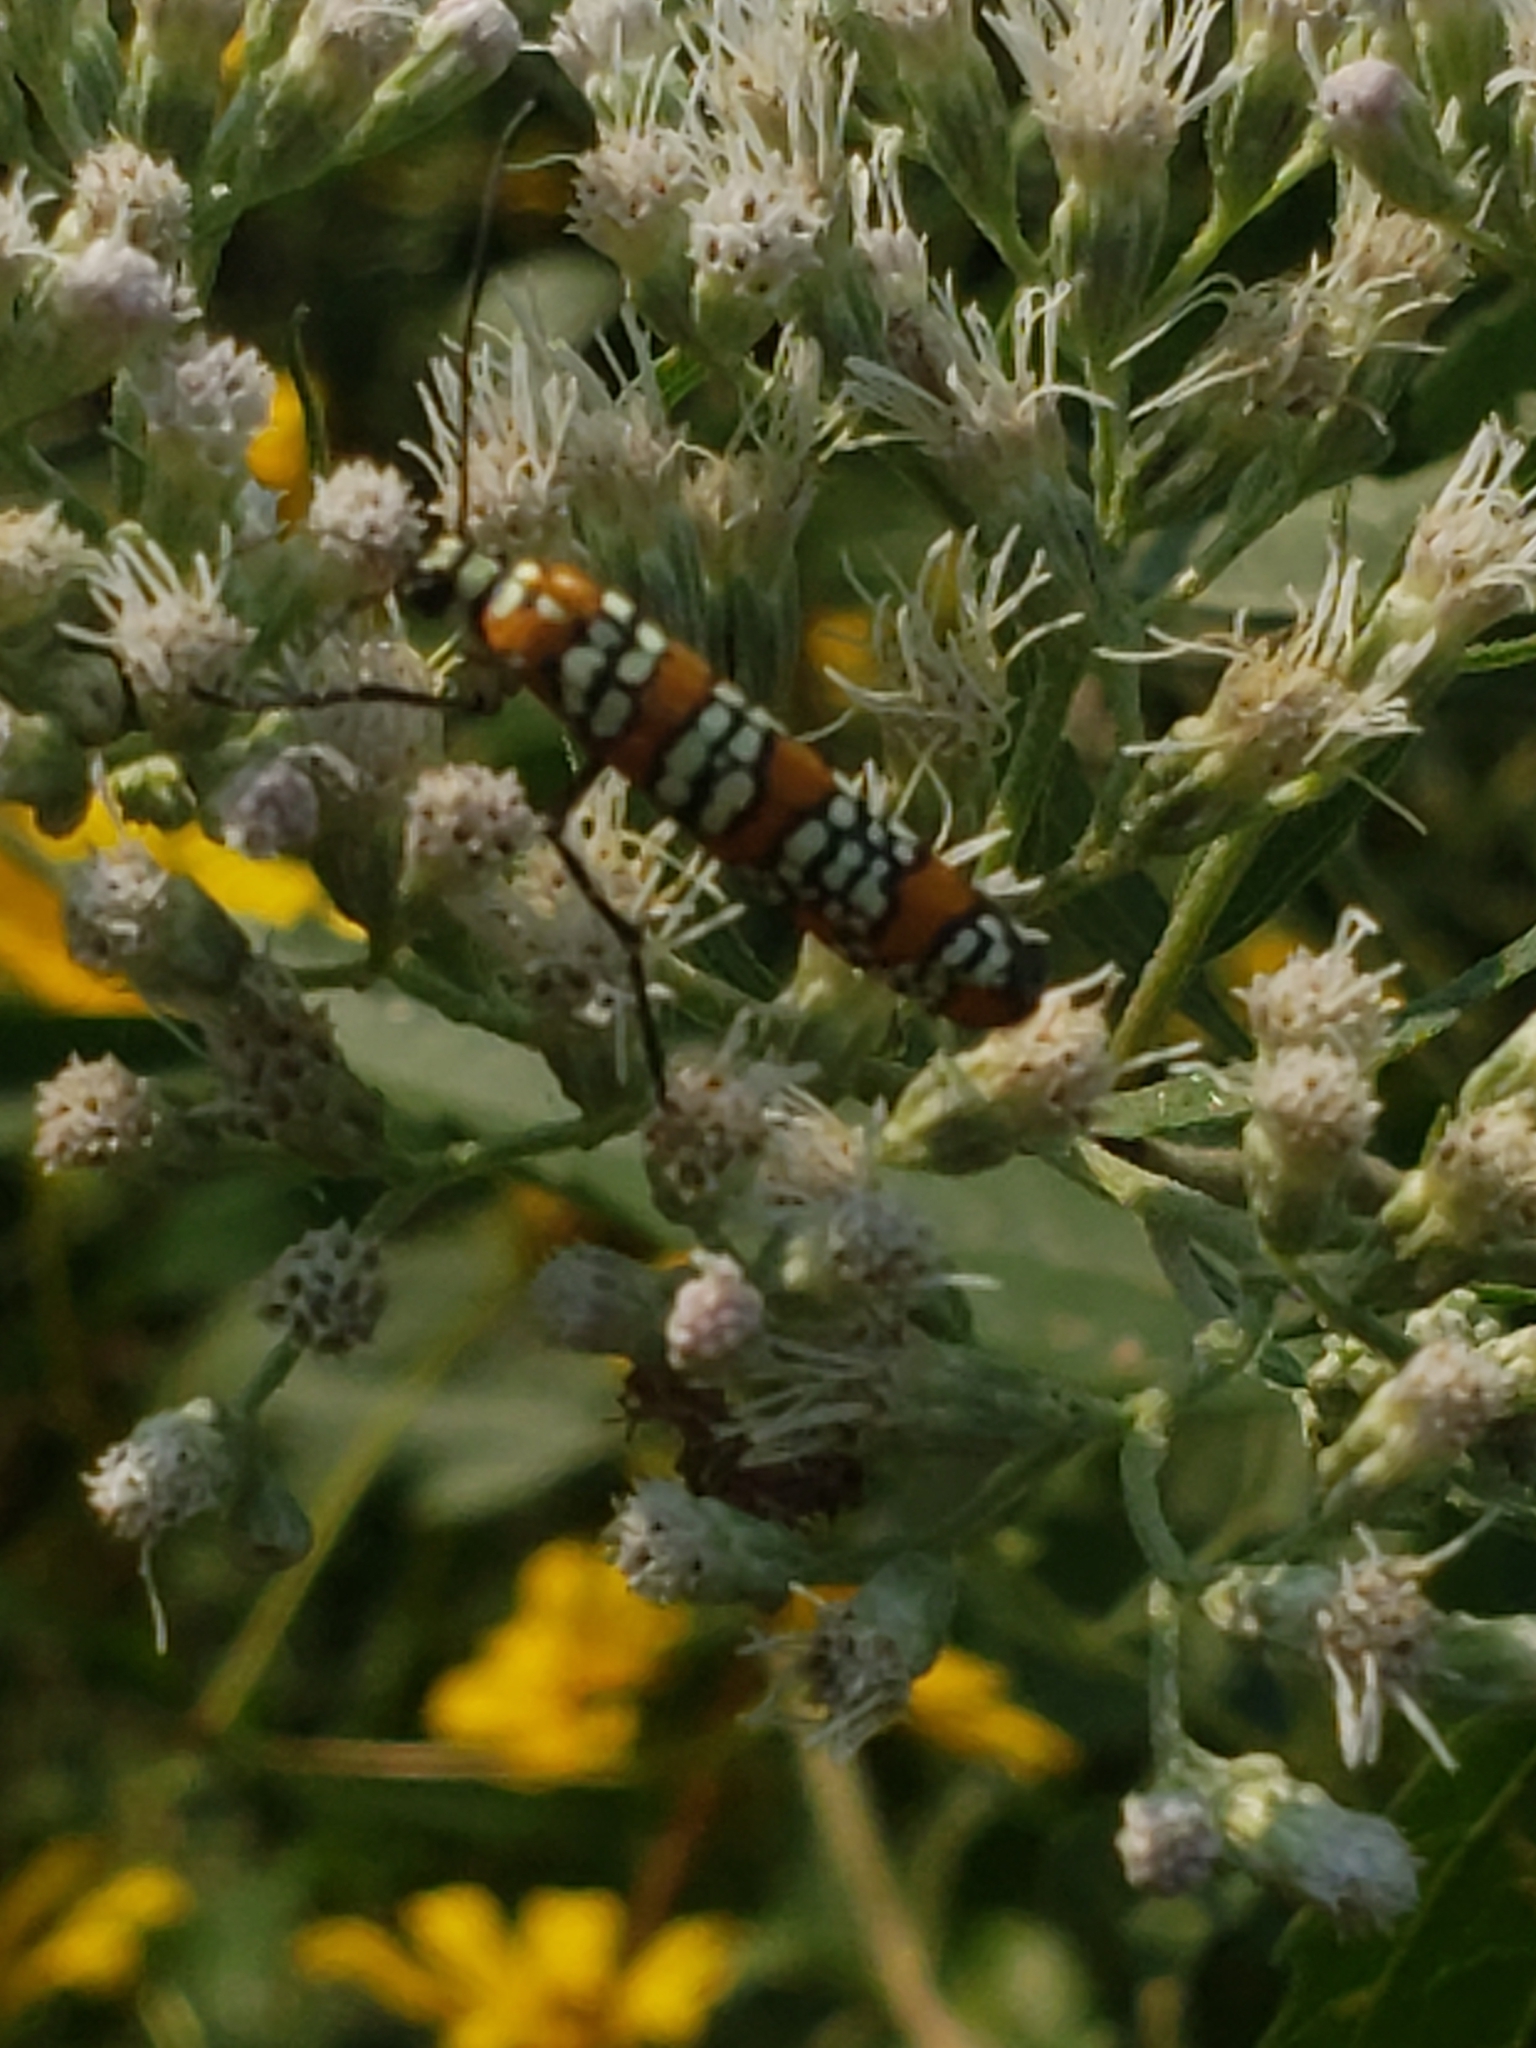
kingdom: Animalia
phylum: Arthropoda
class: Insecta
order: Lepidoptera
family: Attevidae
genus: Atteva
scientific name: Atteva punctella
